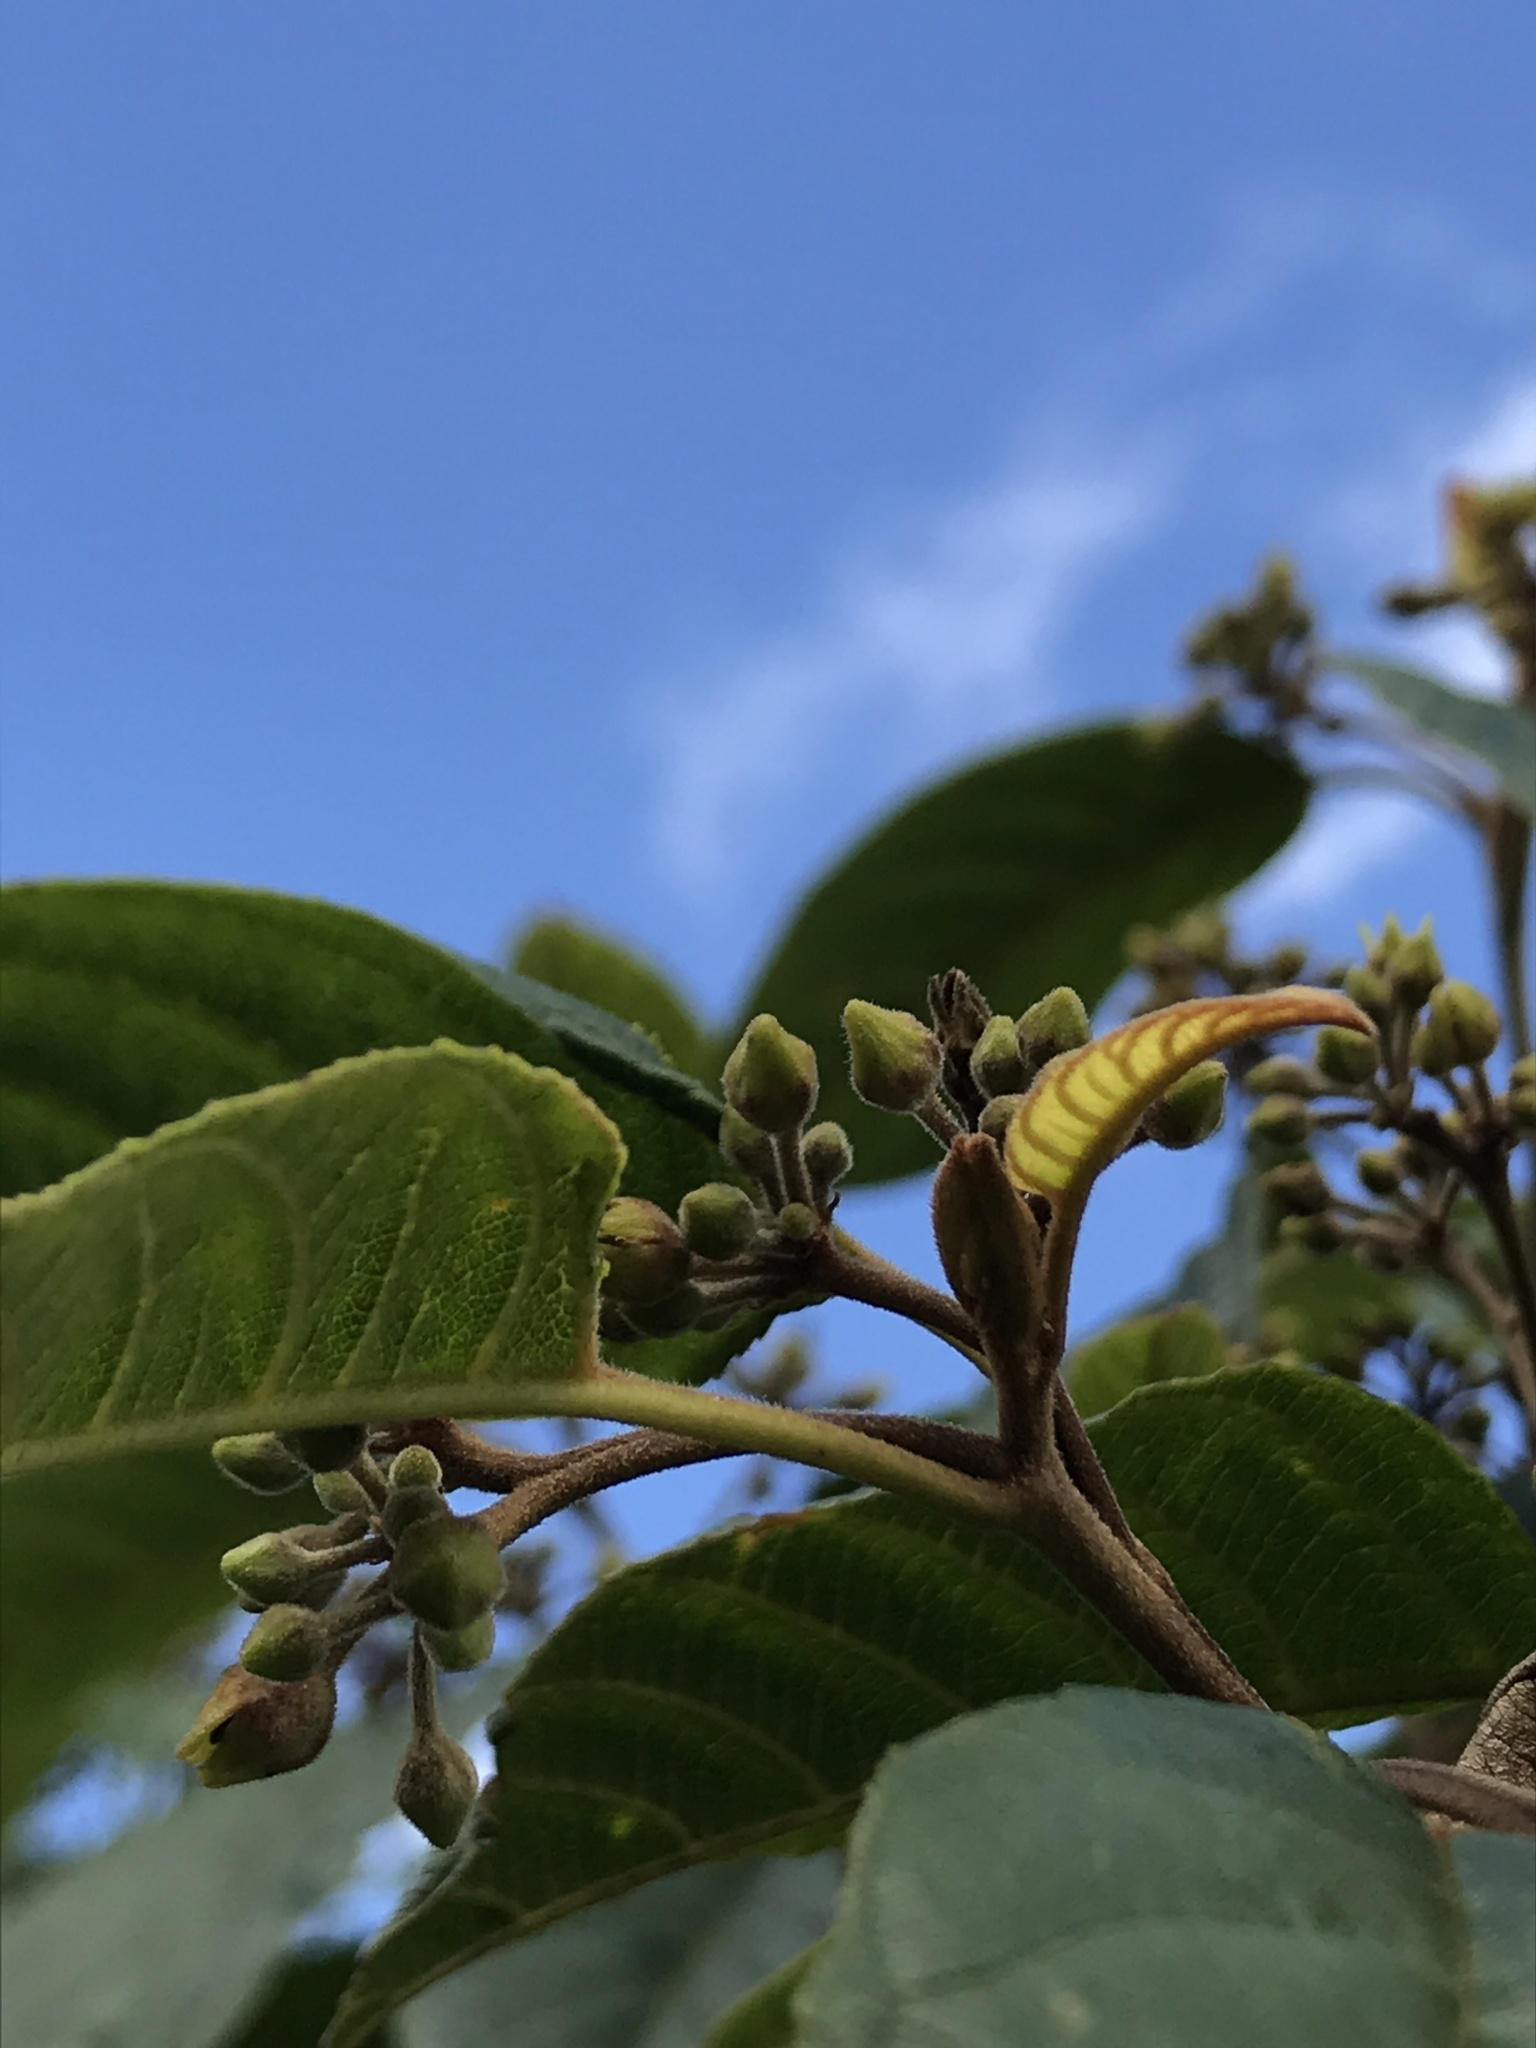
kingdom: Plantae
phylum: Tracheophyta
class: Magnoliopsida
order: Rosales
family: Rhamnaceae
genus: Frangula
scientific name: Frangula sphaerosperma
